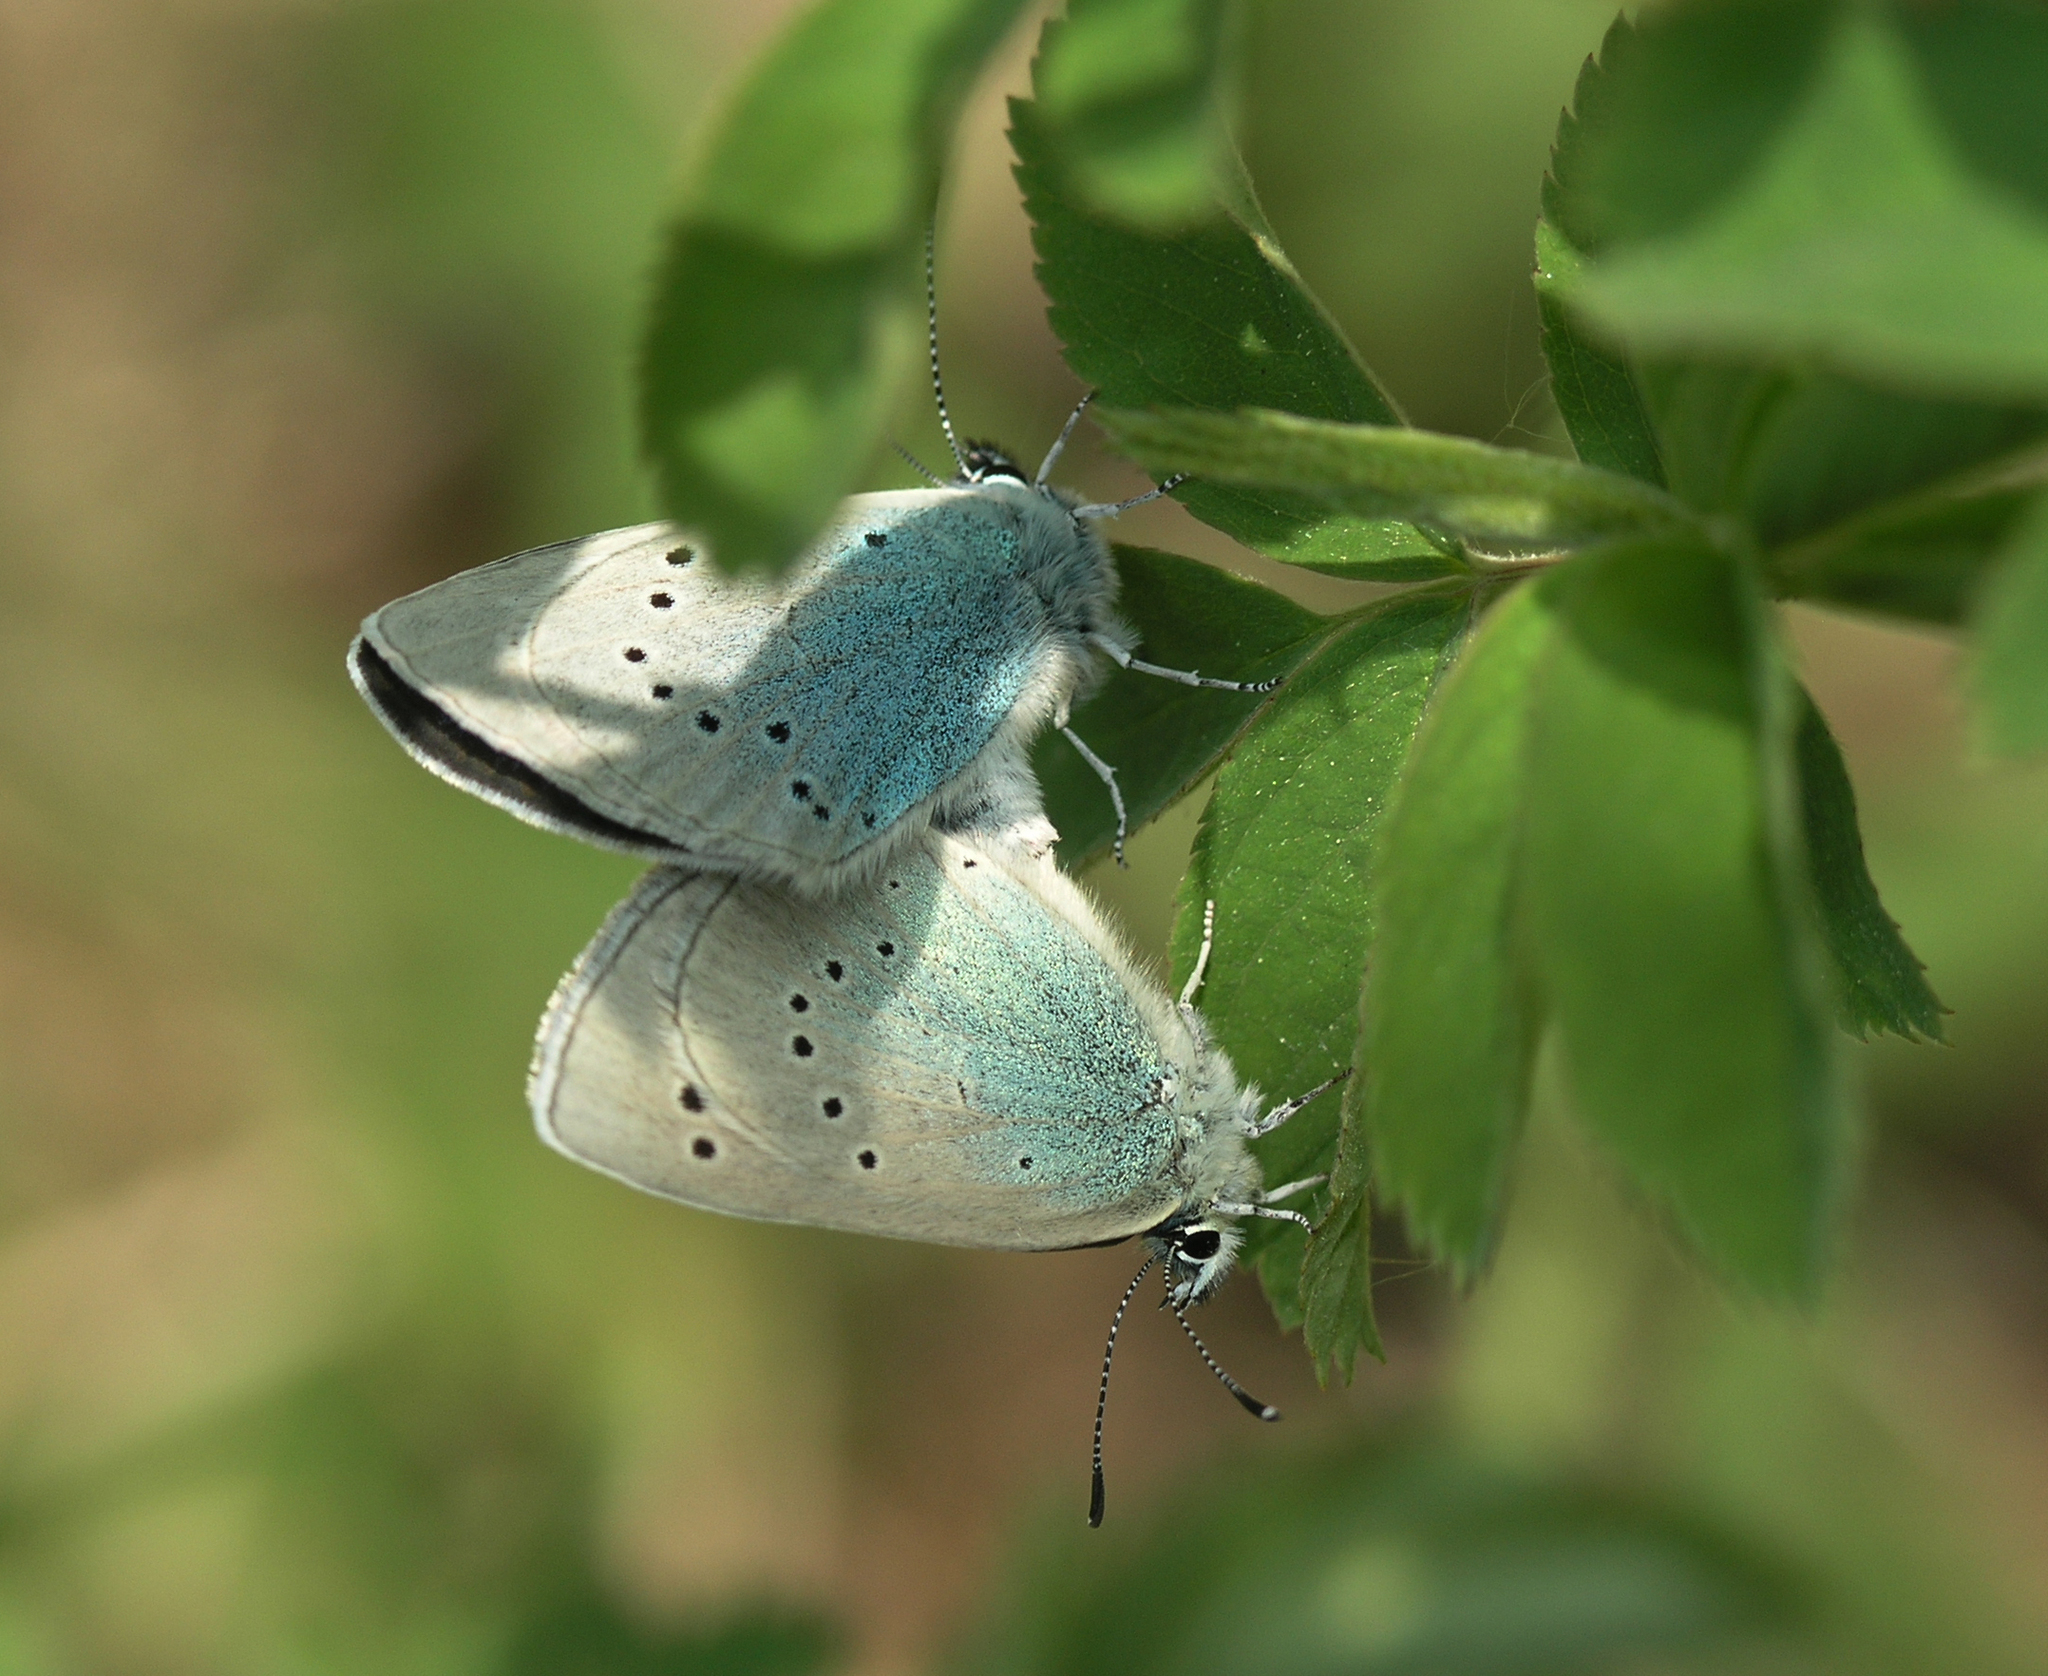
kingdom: Animalia
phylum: Arthropoda
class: Insecta
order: Lepidoptera
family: Lycaenidae
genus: Glaucopsyche
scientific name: Glaucopsyche lycormas
